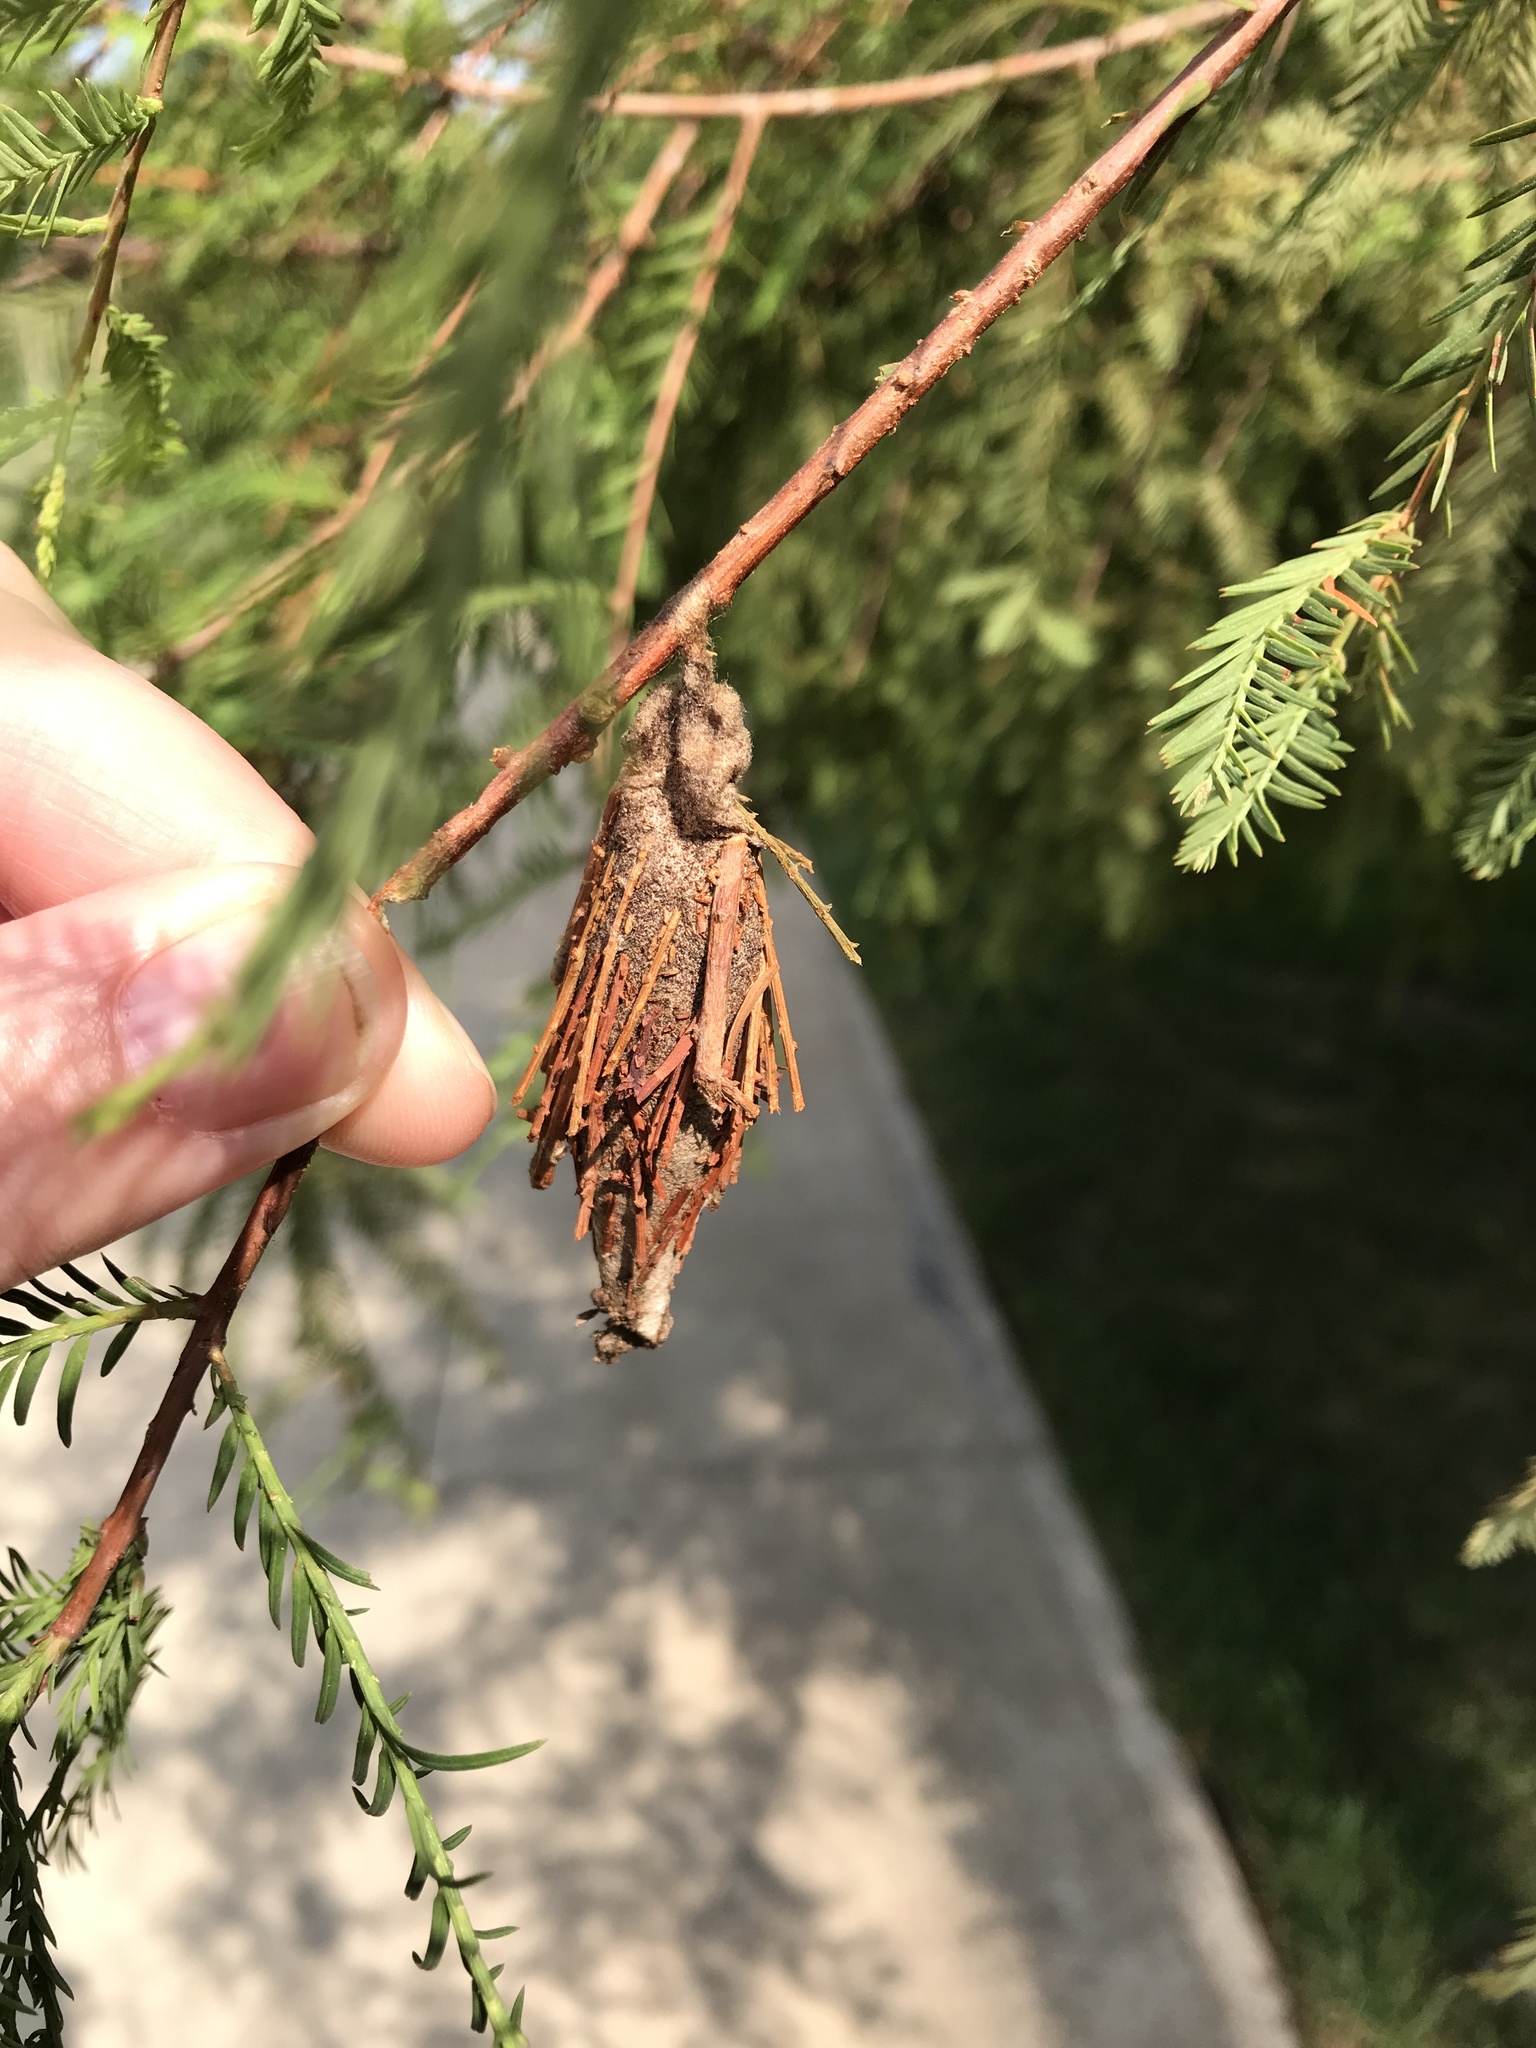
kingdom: Animalia
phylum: Arthropoda
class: Insecta
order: Lepidoptera
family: Psychidae
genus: Thyridopteryx
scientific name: Thyridopteryx ephemeraeformis
